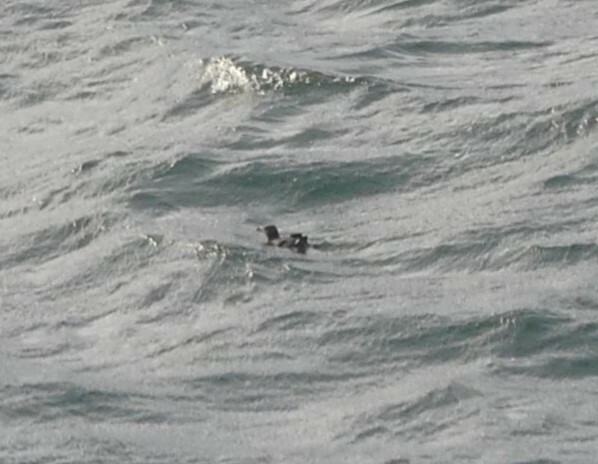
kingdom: Animalia
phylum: Chordata
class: Aves
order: Charadriiformes
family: Alcidae
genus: Cerorhinca
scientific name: Cerorhinca monocerata
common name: Rhinoceros auklet
